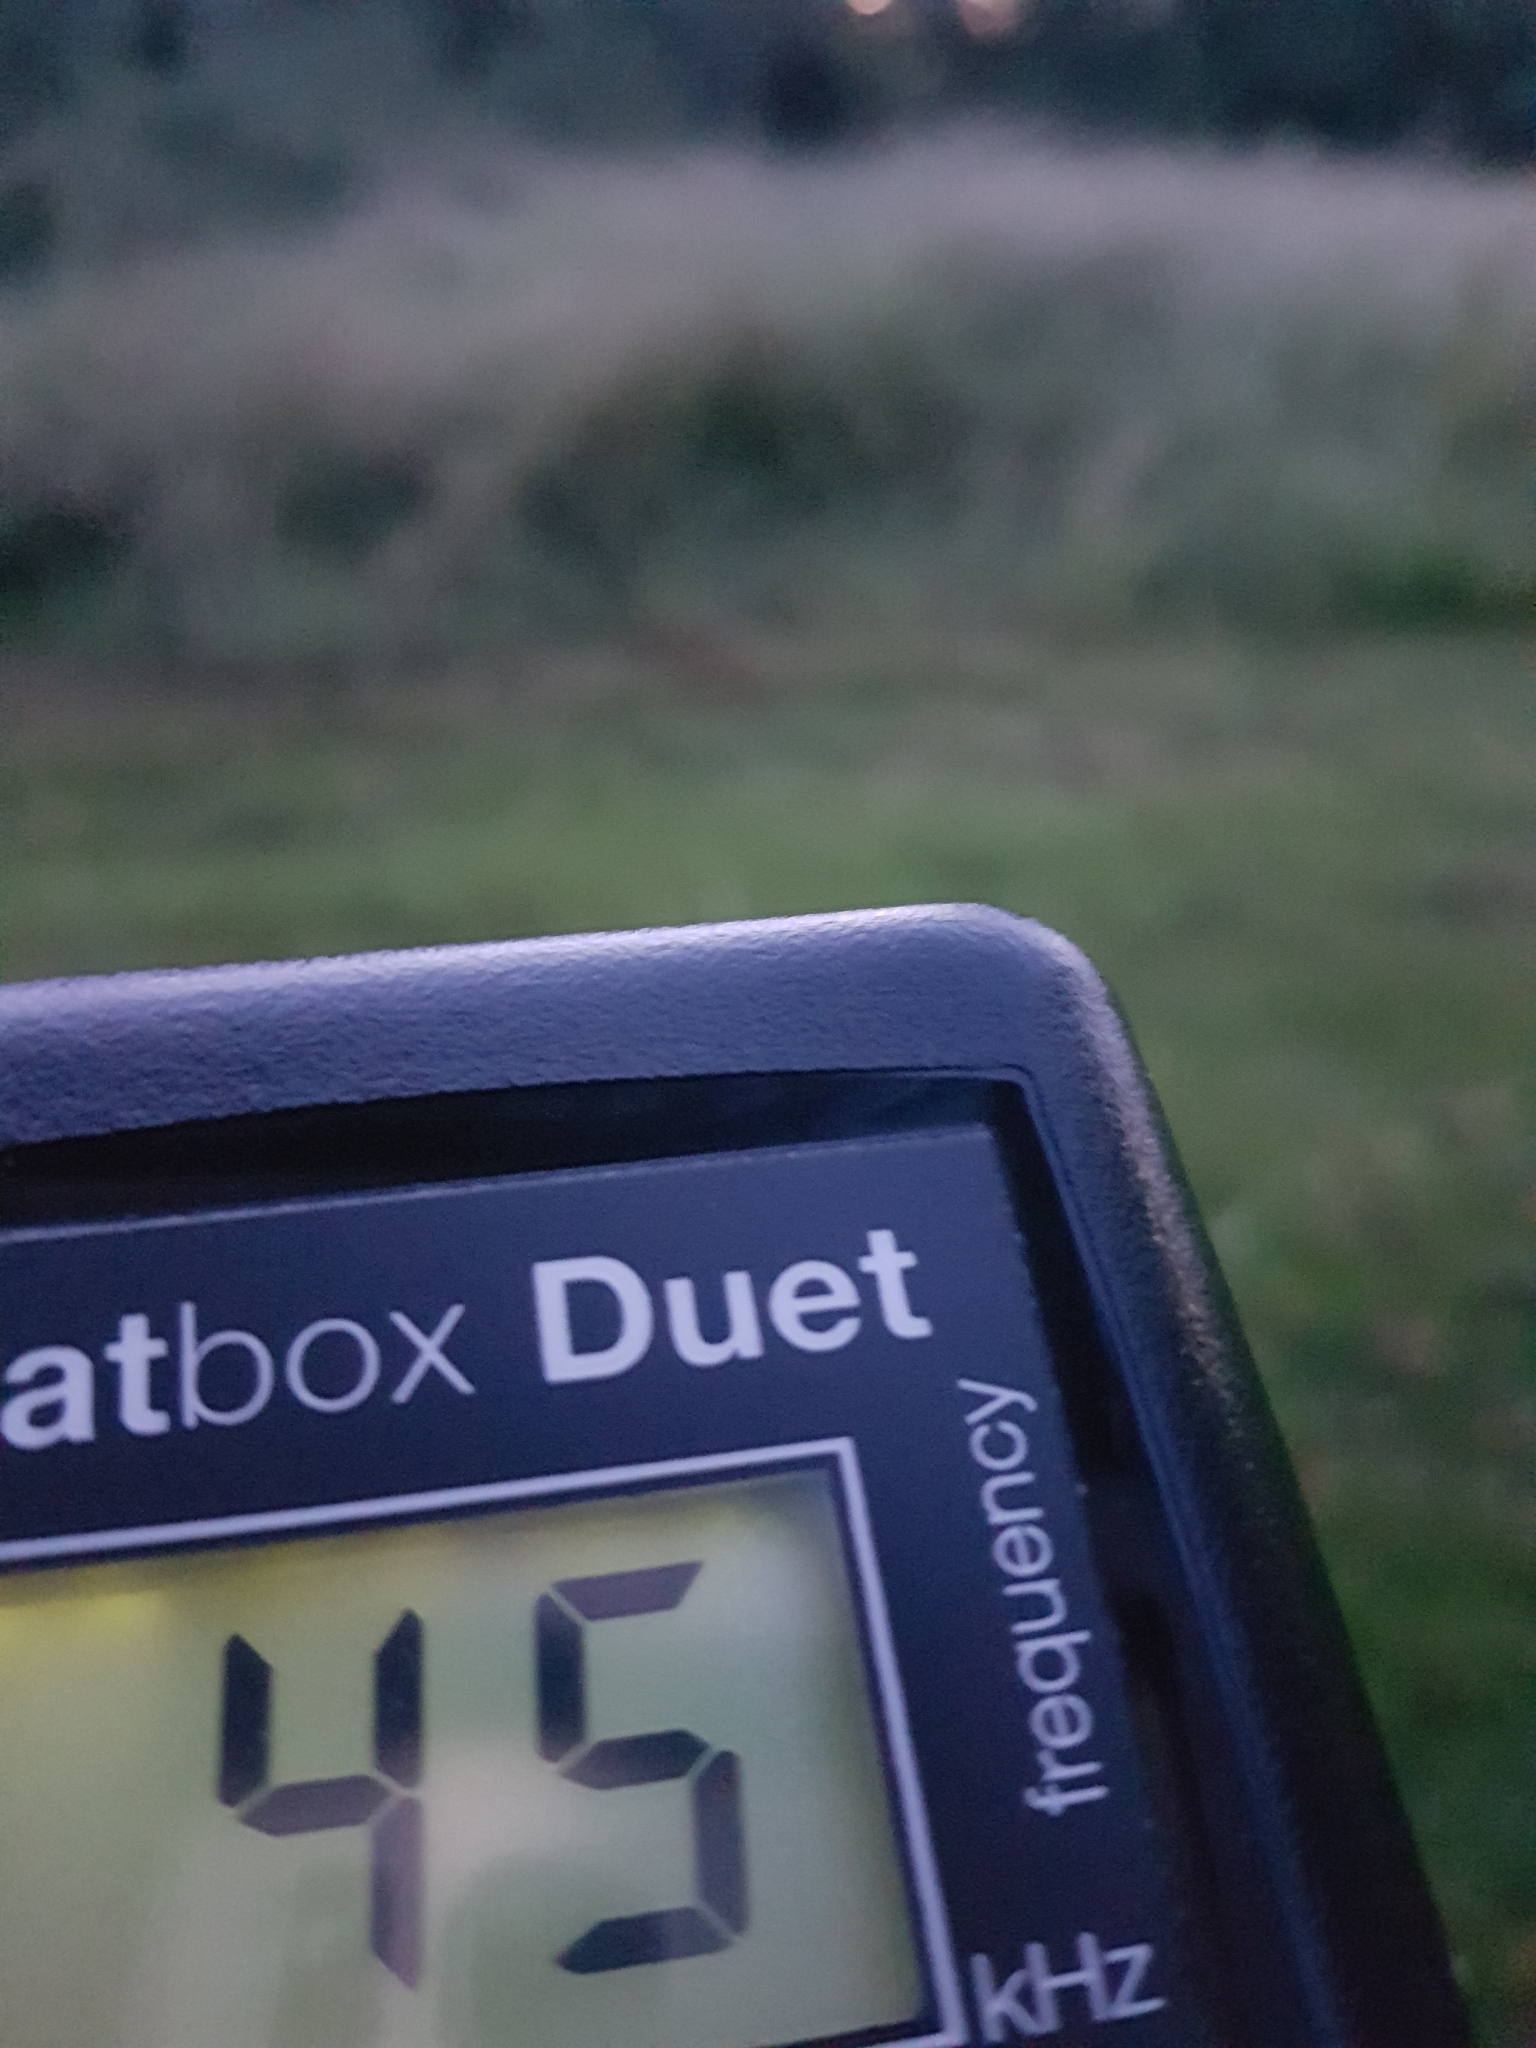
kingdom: Animalia
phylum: Chordata
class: Mammalia
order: Chiroptera
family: Vespertilionidae
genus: Pipistrellus
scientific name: Pipistrellus pipistrellus
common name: Common pipistrelle
